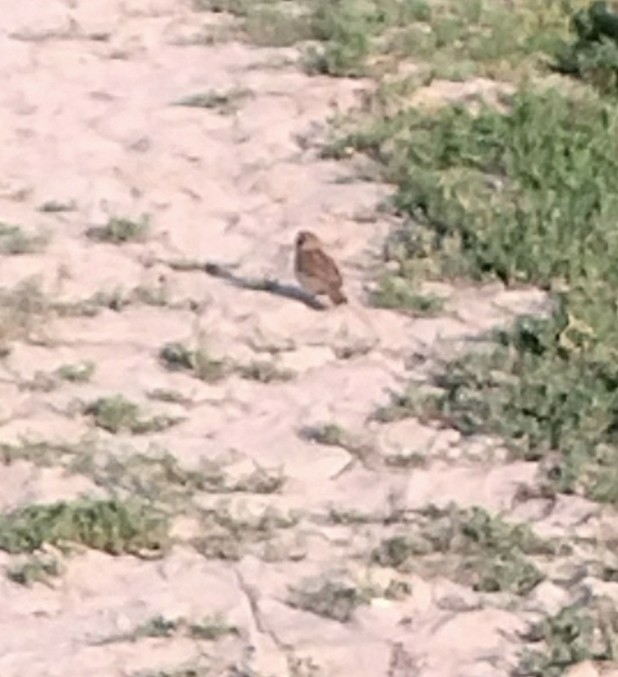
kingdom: Animalia
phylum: Chordata
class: Aves
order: Passeriformes
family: Passeridae
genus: Passer
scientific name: Passer domesticus
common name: House sparrow
